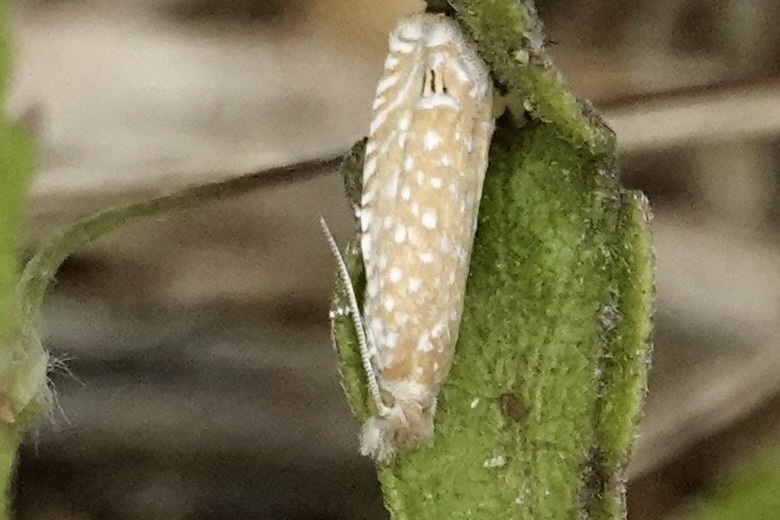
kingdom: Animalia
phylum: Arthropoda
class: Insecta
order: Lepidoptera
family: Tortricidae
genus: Pelochrista
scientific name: Pelochrista kimballi
